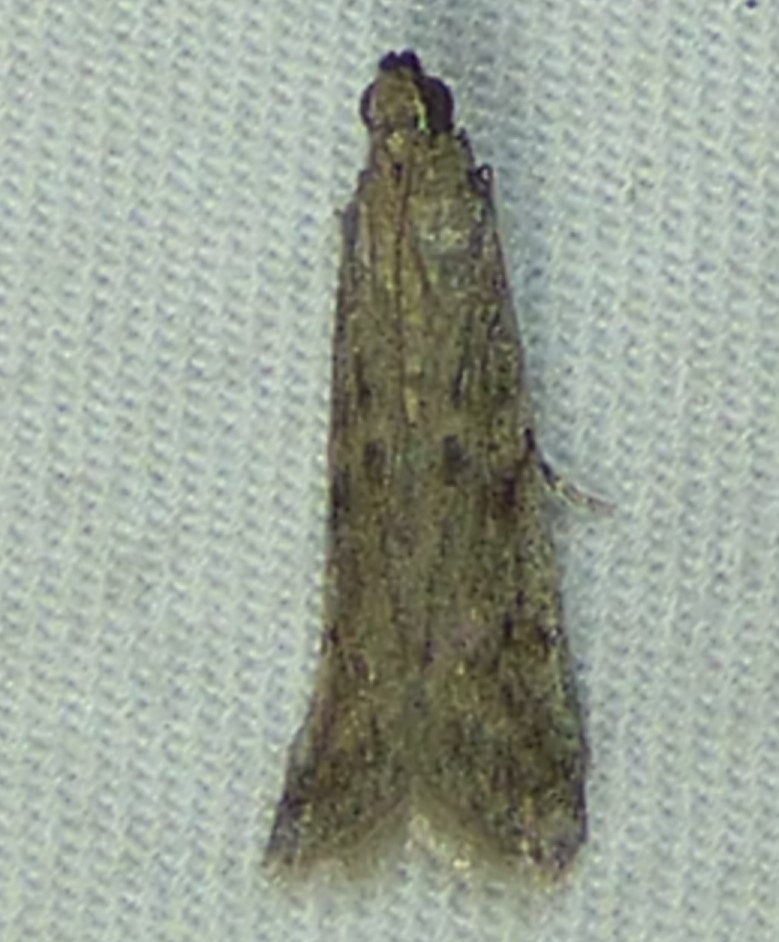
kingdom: Animalia
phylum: Arthropoda
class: Insecta
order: Lepidoptera
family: Pyralidae
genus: Phycitodes
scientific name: Phycitodes mucidellus
